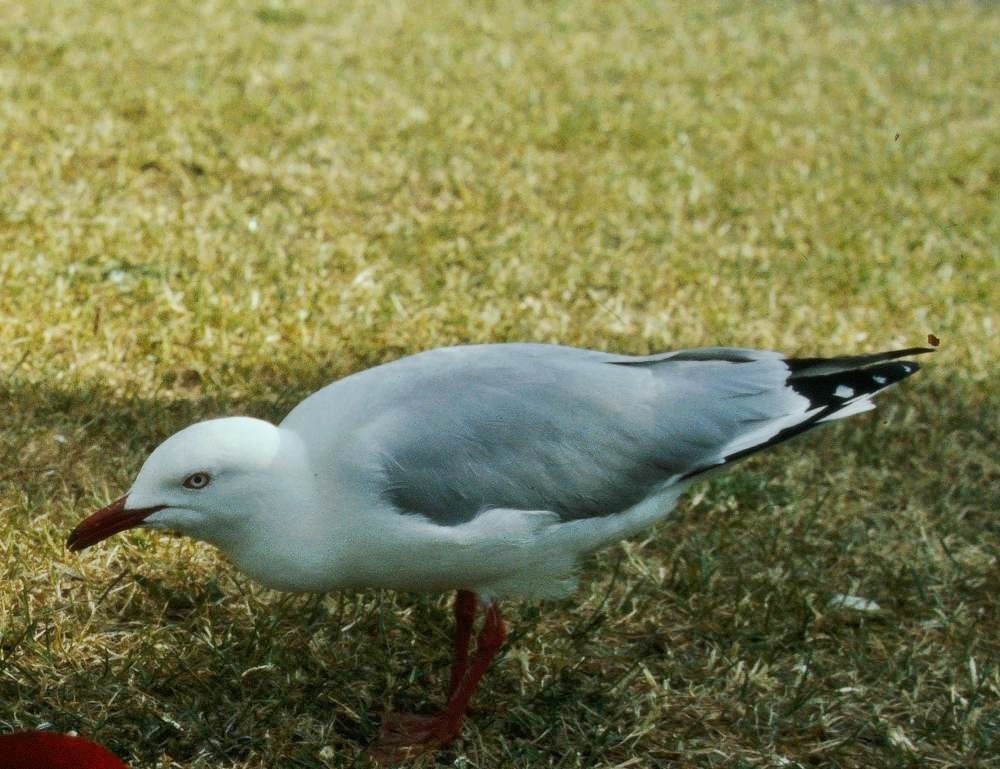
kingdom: Animalia
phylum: Chordata
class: Aves
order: Charadriiformes
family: Laridae
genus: Chroicocephalus
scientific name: Chroicocephalus novaehollandiae
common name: Silver gull
